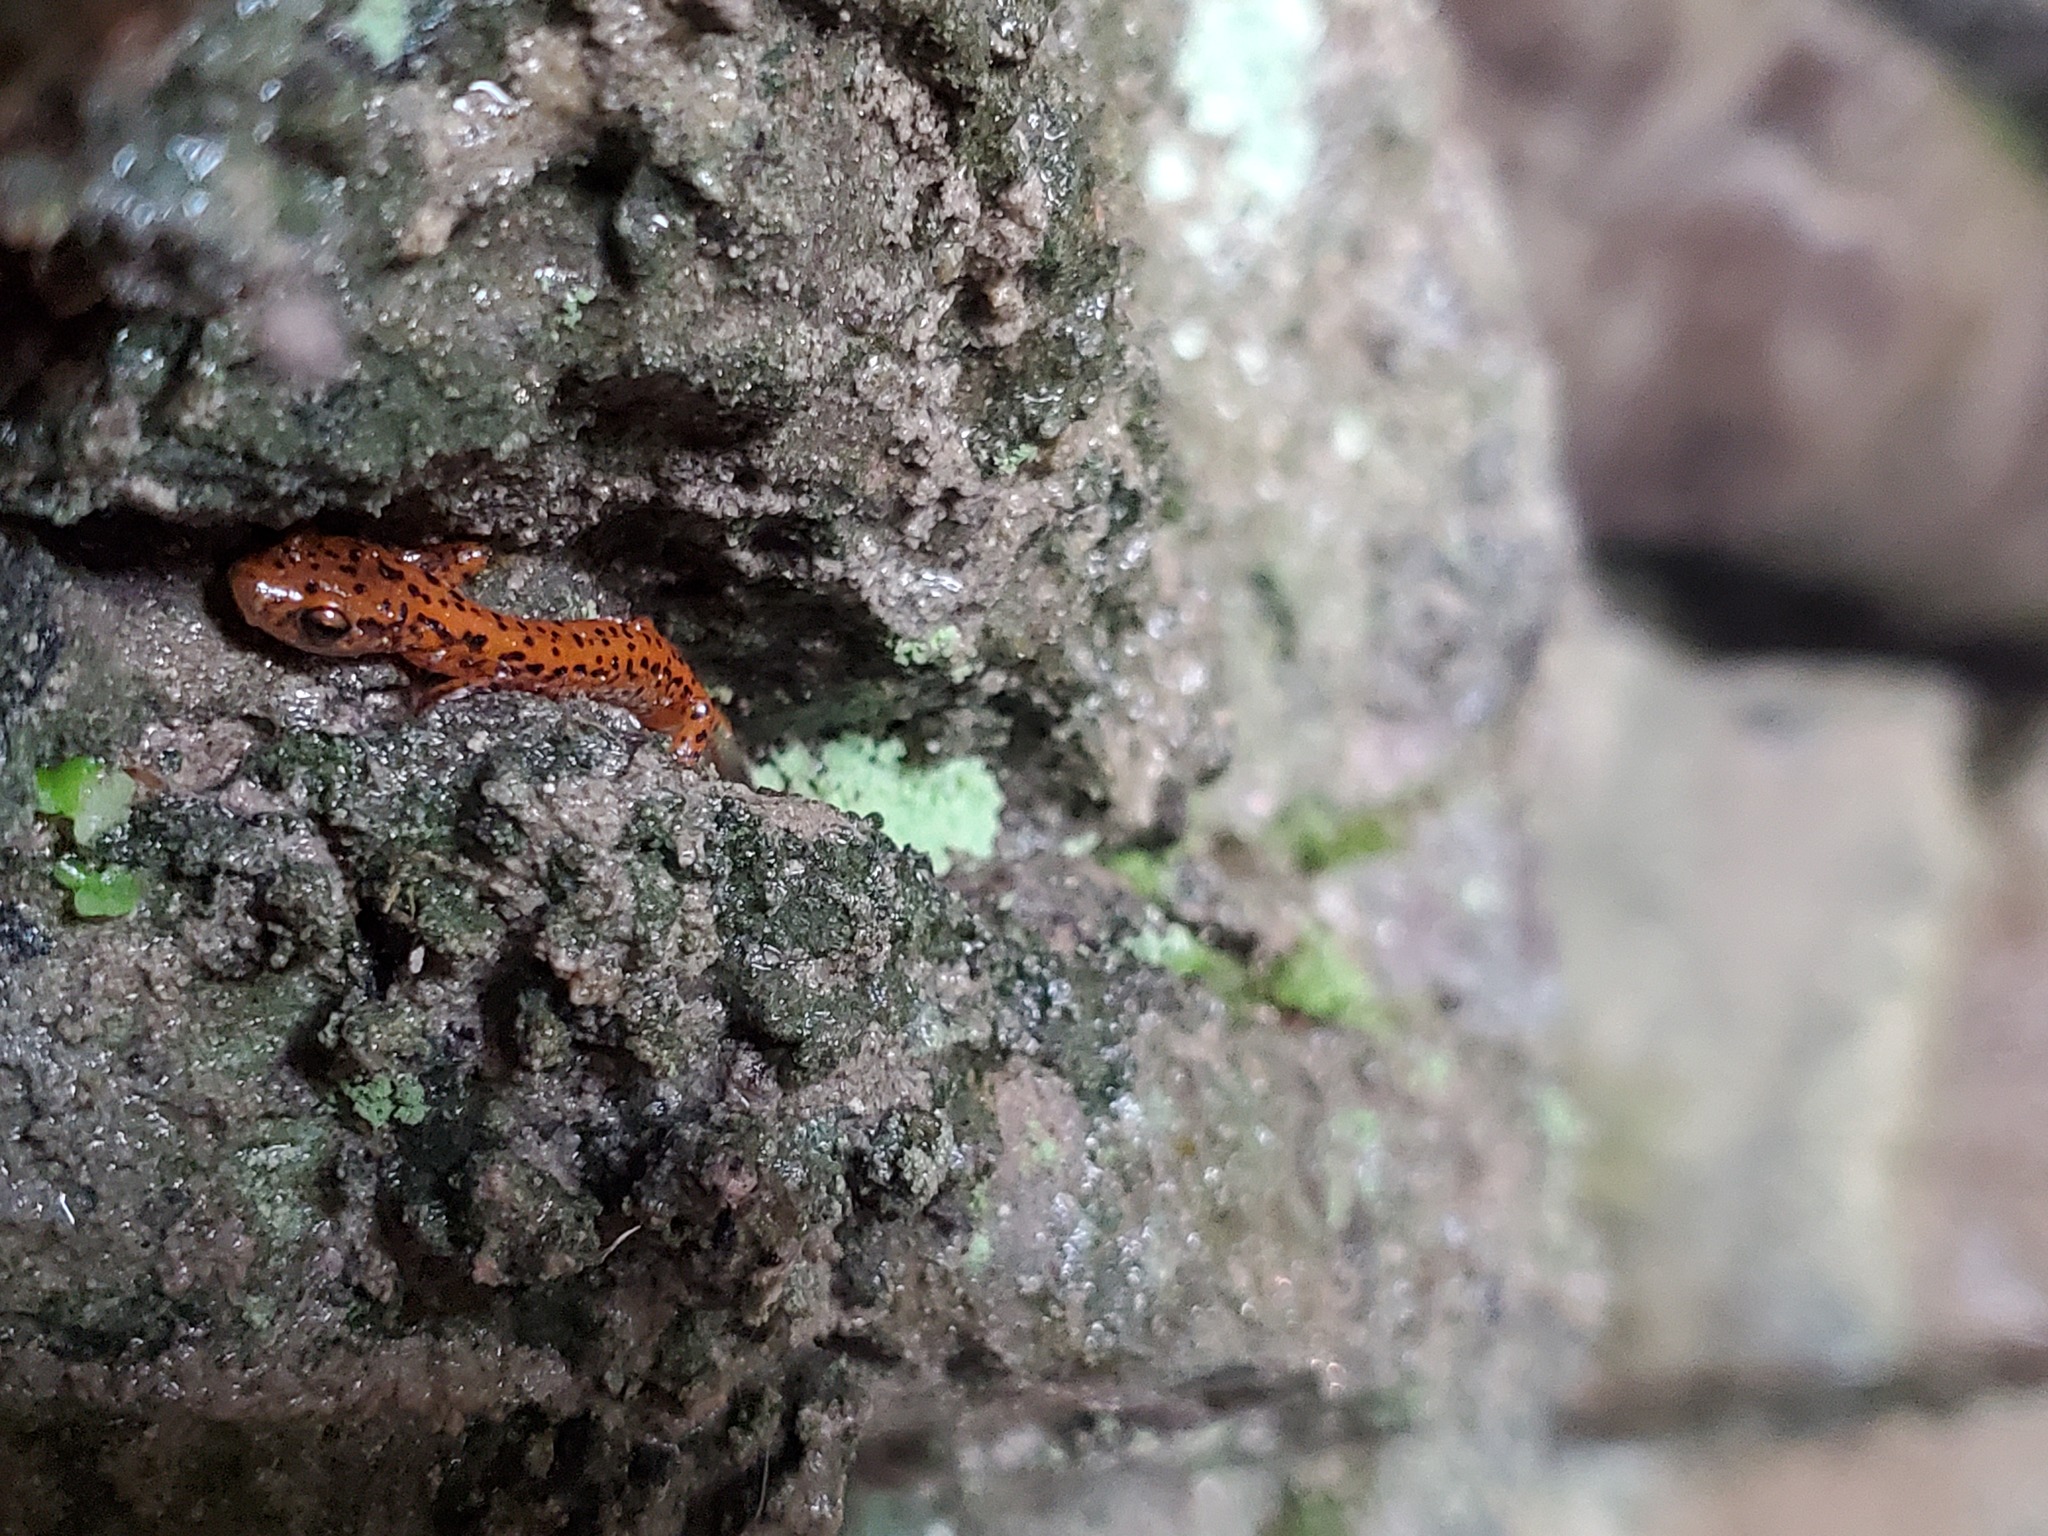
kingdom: Animalia
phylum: Chordata
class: Amphibia
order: Caudata
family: Plethodontidae
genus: Eurycea
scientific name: Eurycea lucifuga
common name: Cave salamander
